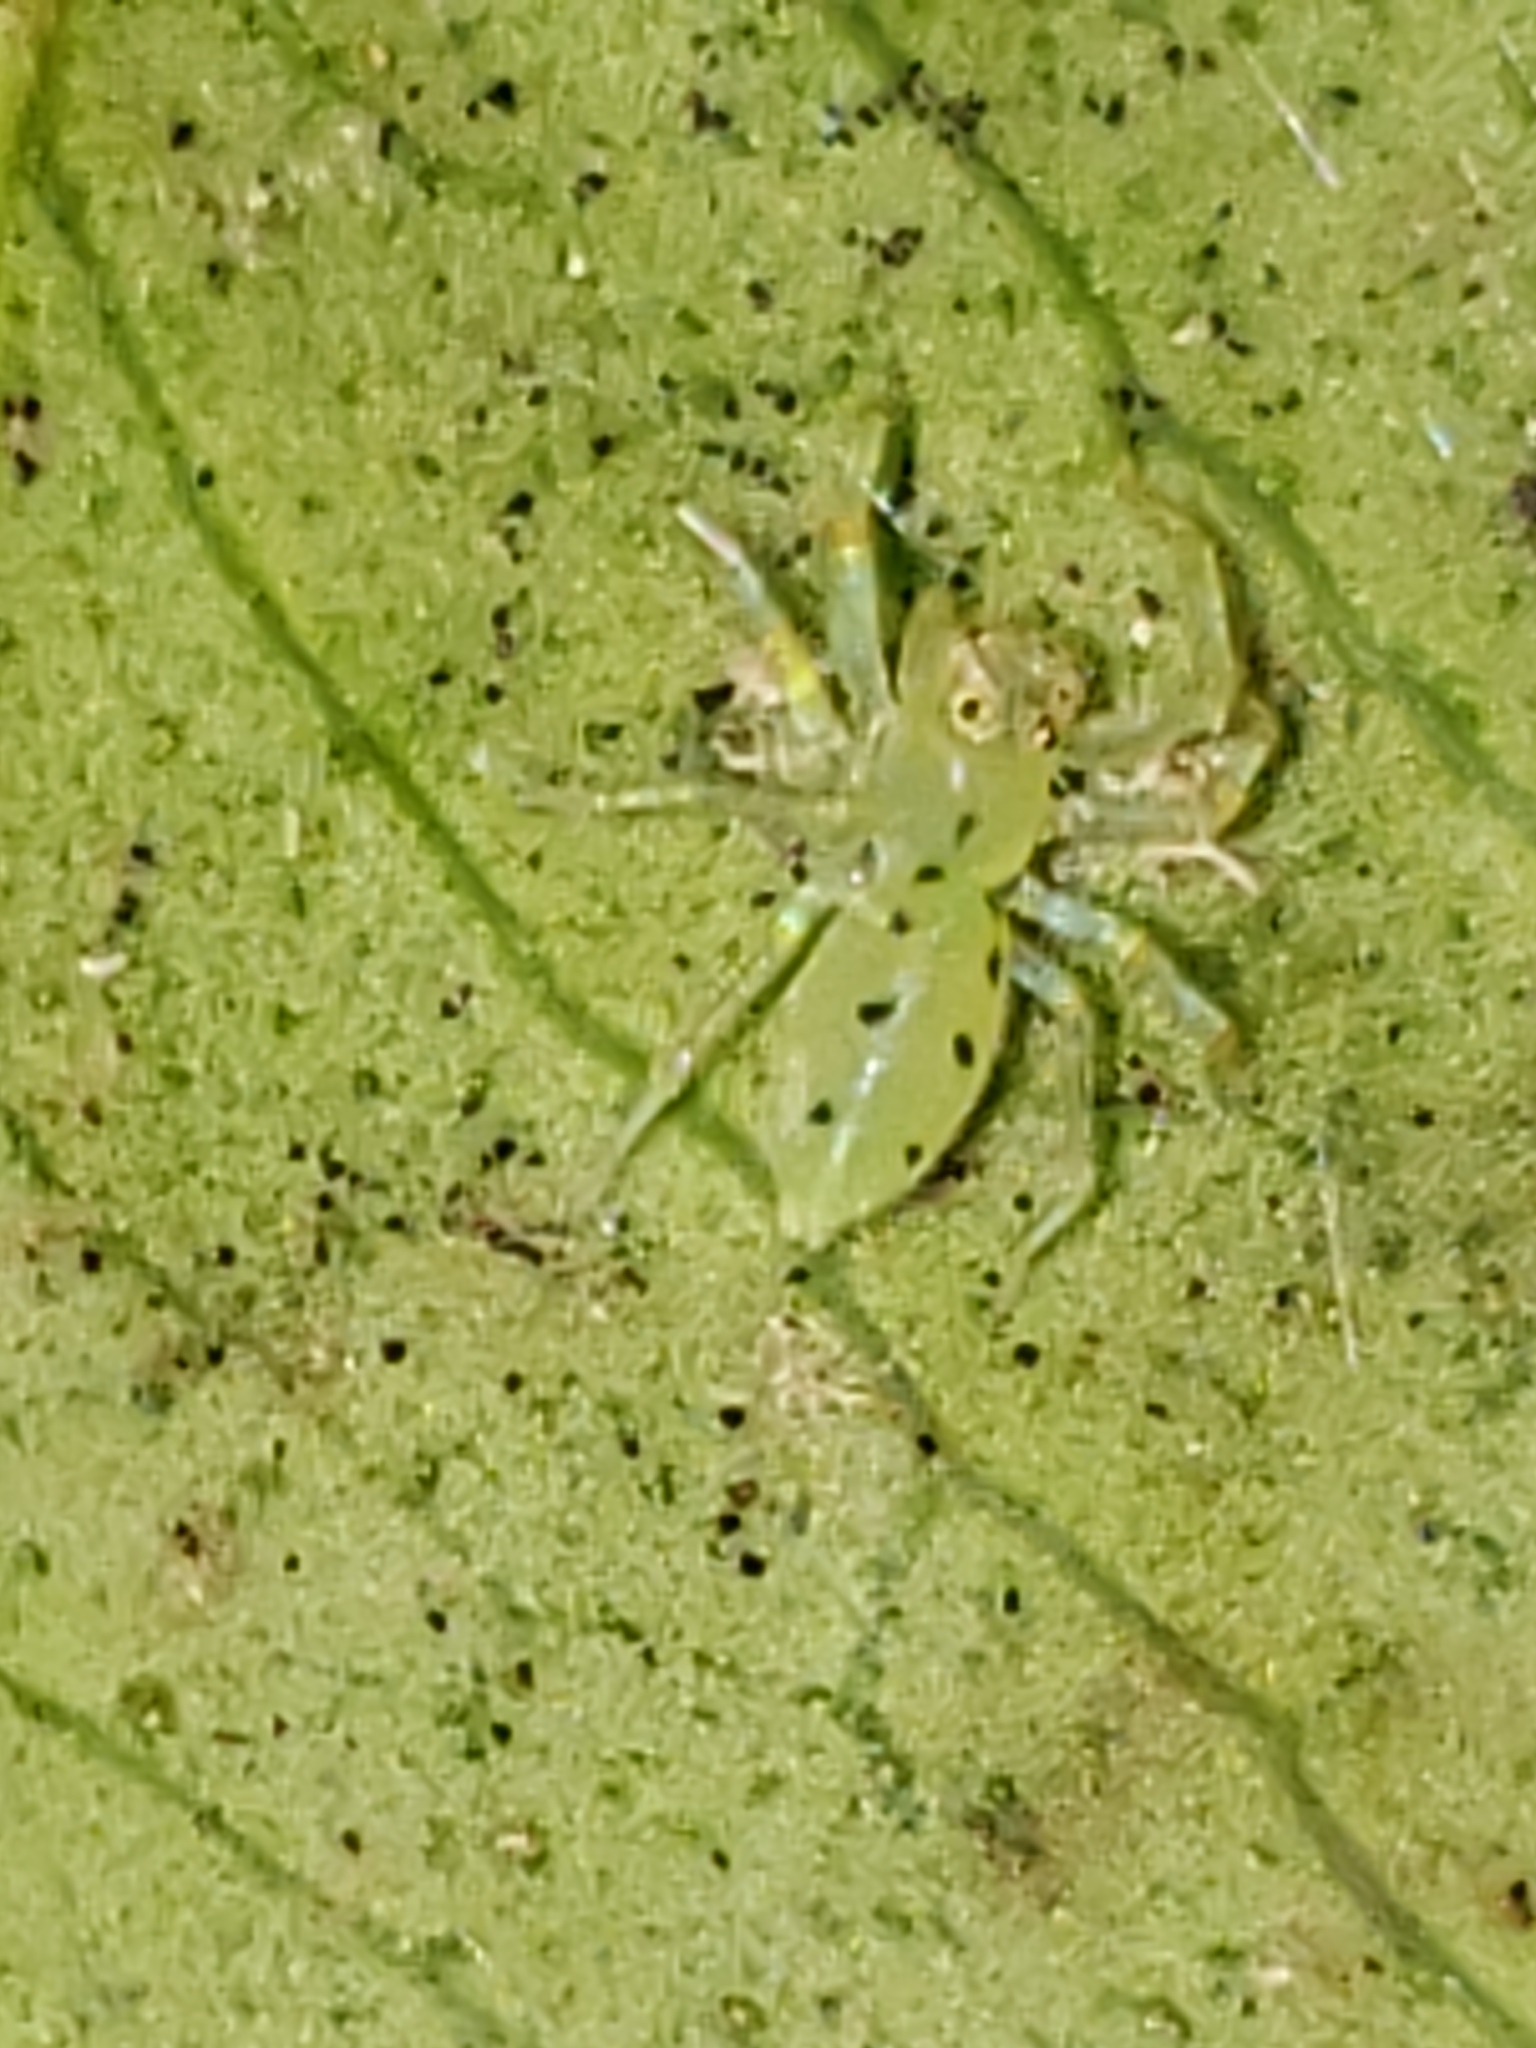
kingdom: Animalia
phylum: Arthropoda
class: Arachnida
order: Araneae
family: Salticidae
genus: Lyssomanes
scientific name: Lyssomanes viridis
